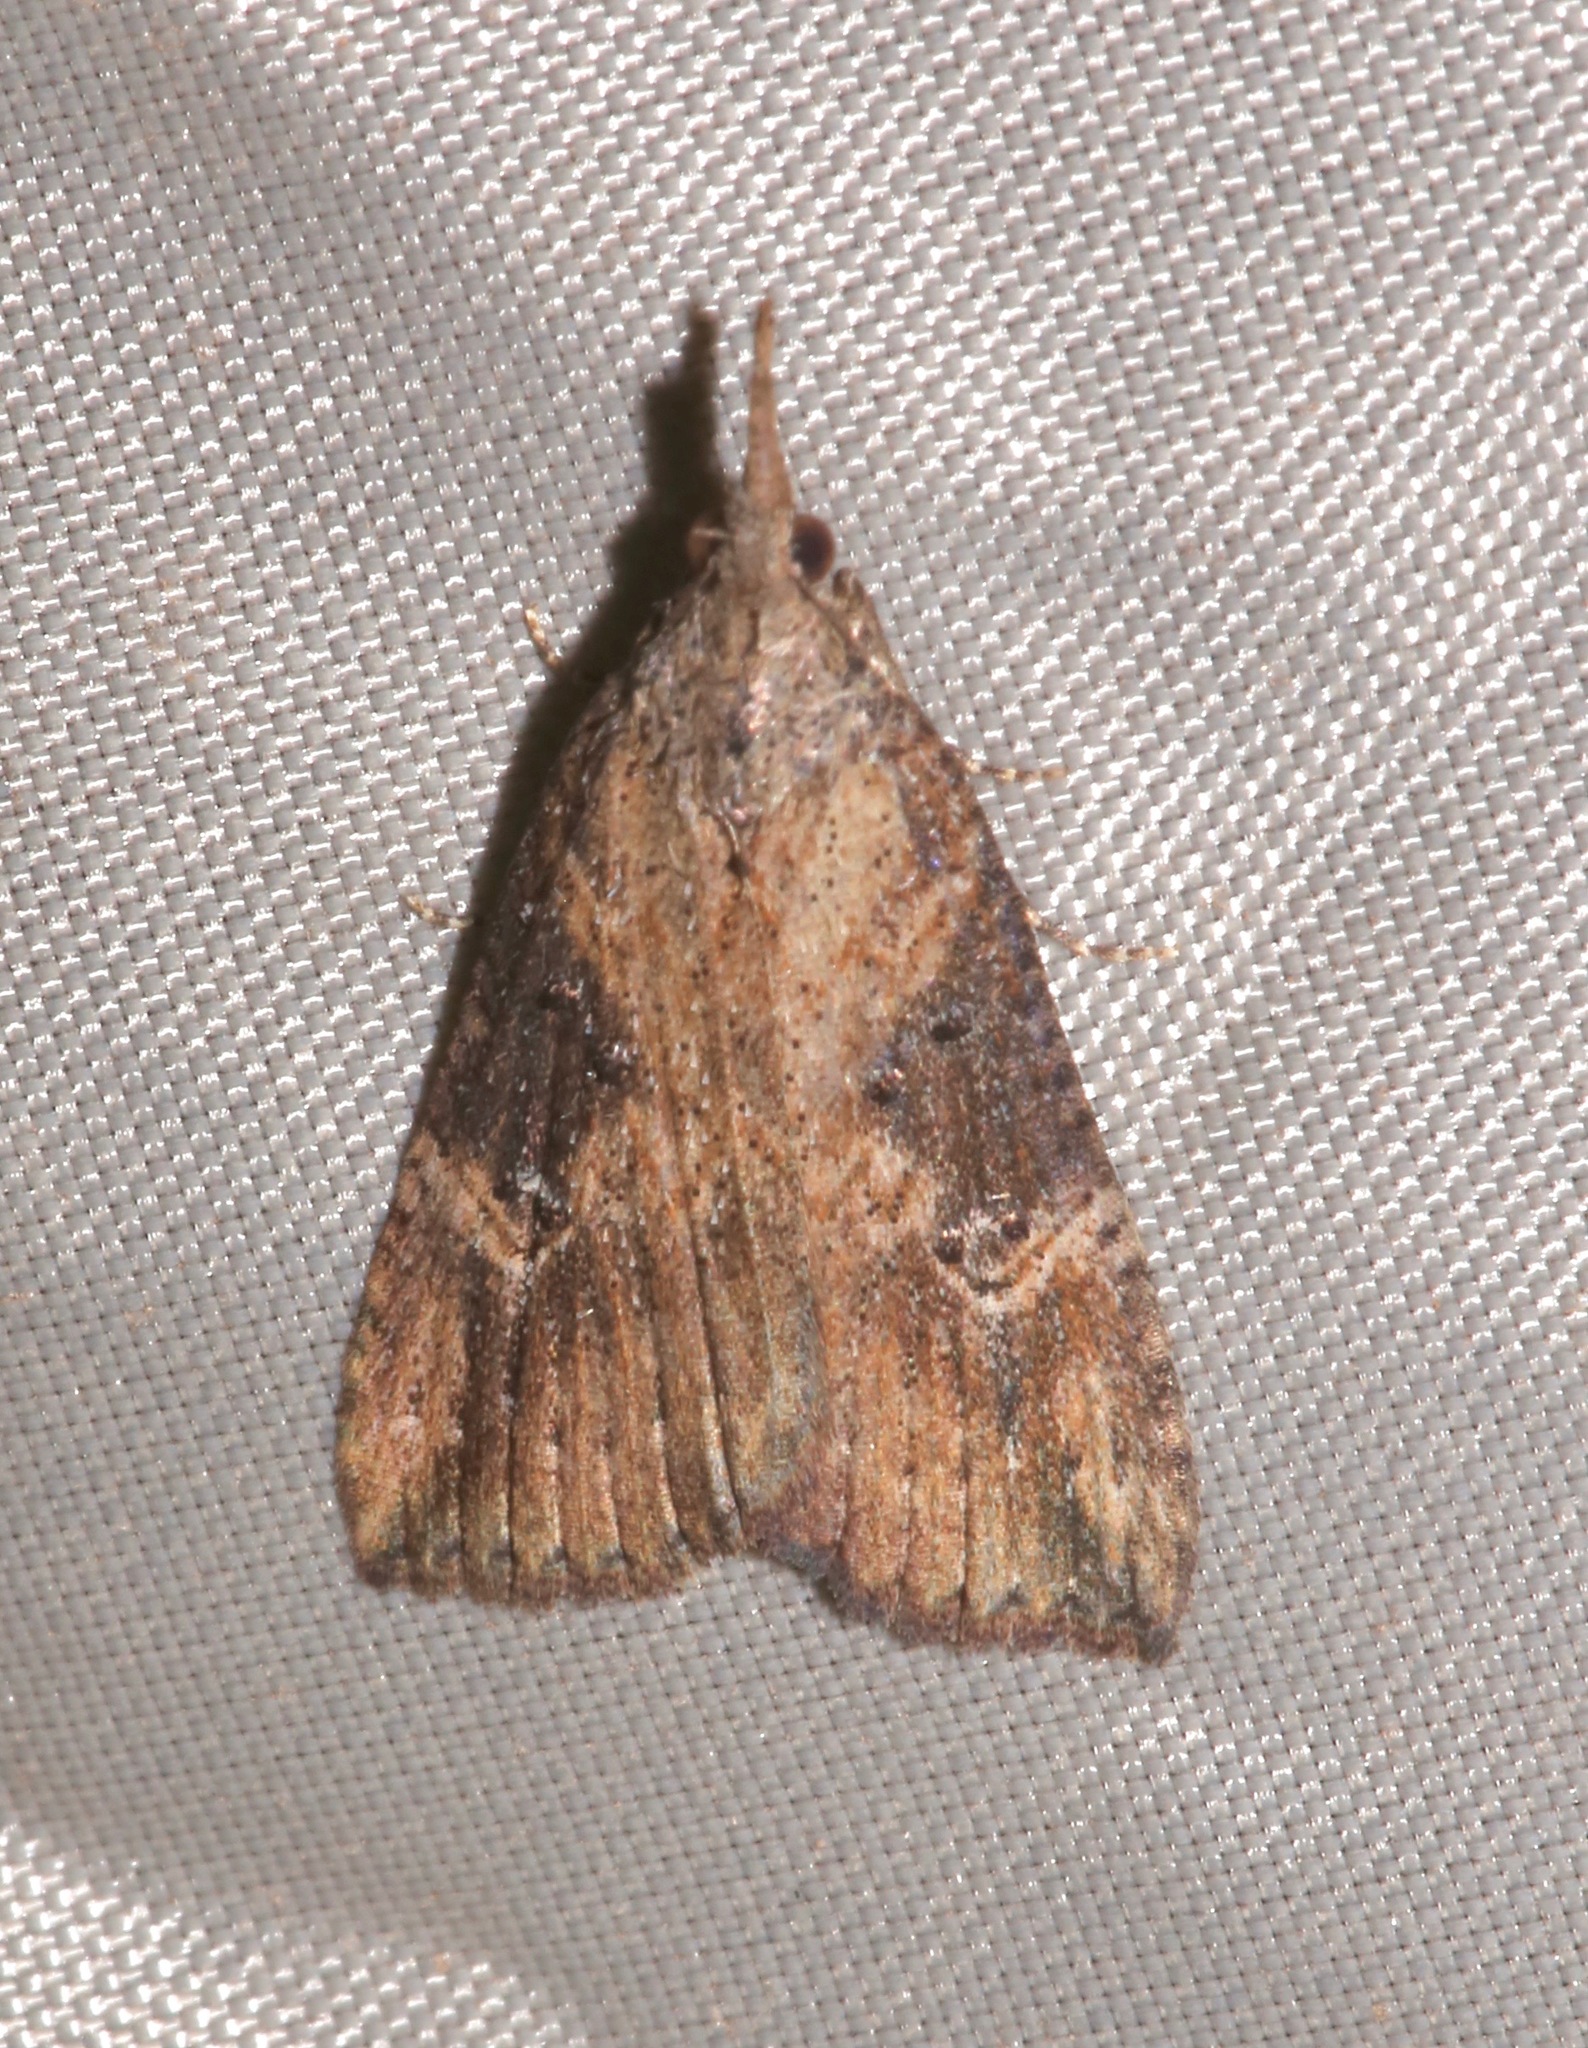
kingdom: Animalia
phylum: Arthropoda
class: Insecta
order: Lepidoptera
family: Erebidae
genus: Hypena
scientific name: Hypena humuli
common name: Hop vine snout
